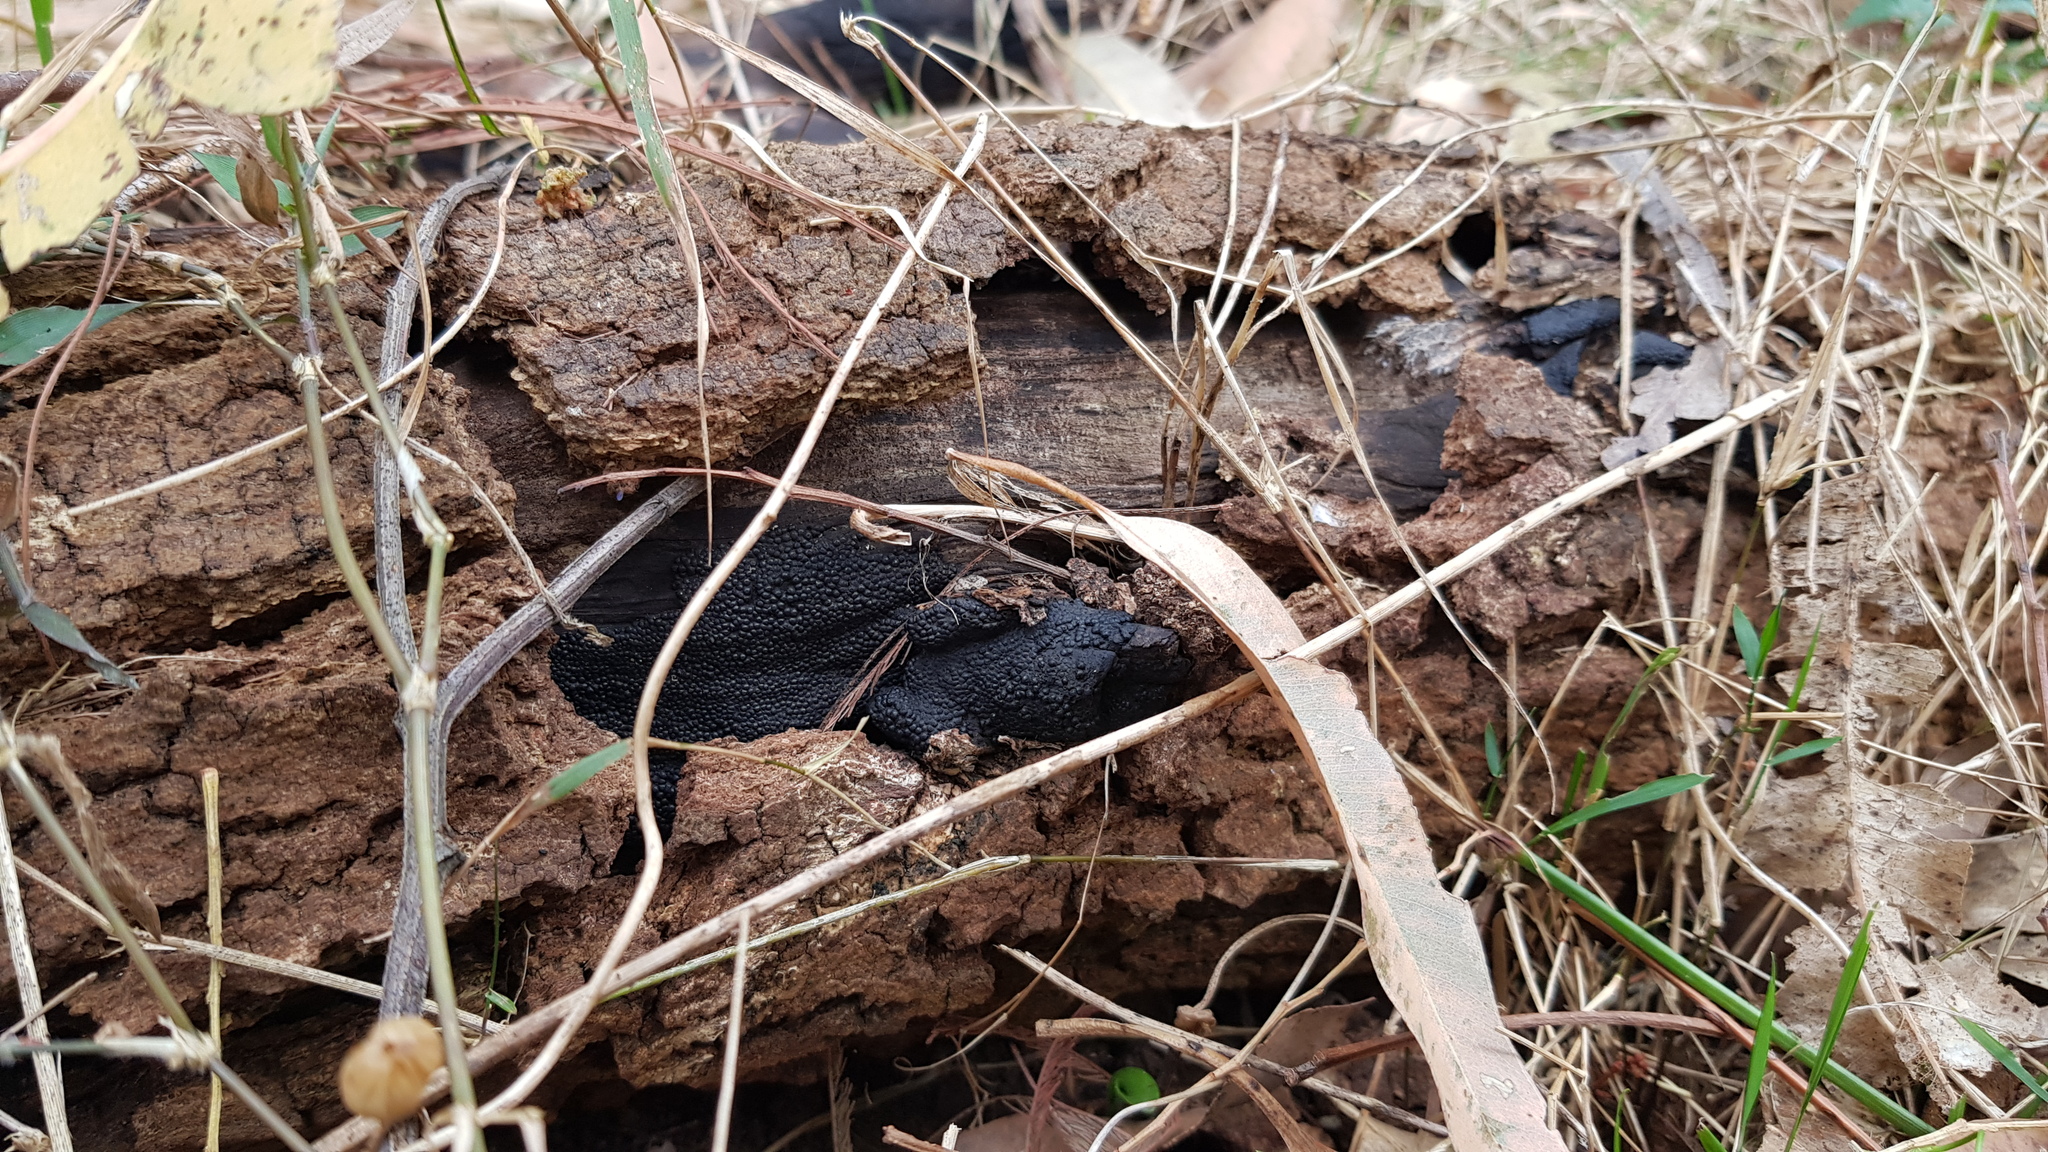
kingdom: Fungi
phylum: Ascomycota
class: Sordariomycetes
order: Xylariales
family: Hypoxylaceae
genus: Annulohypoxylon
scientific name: Annulohypoxylon bovei
